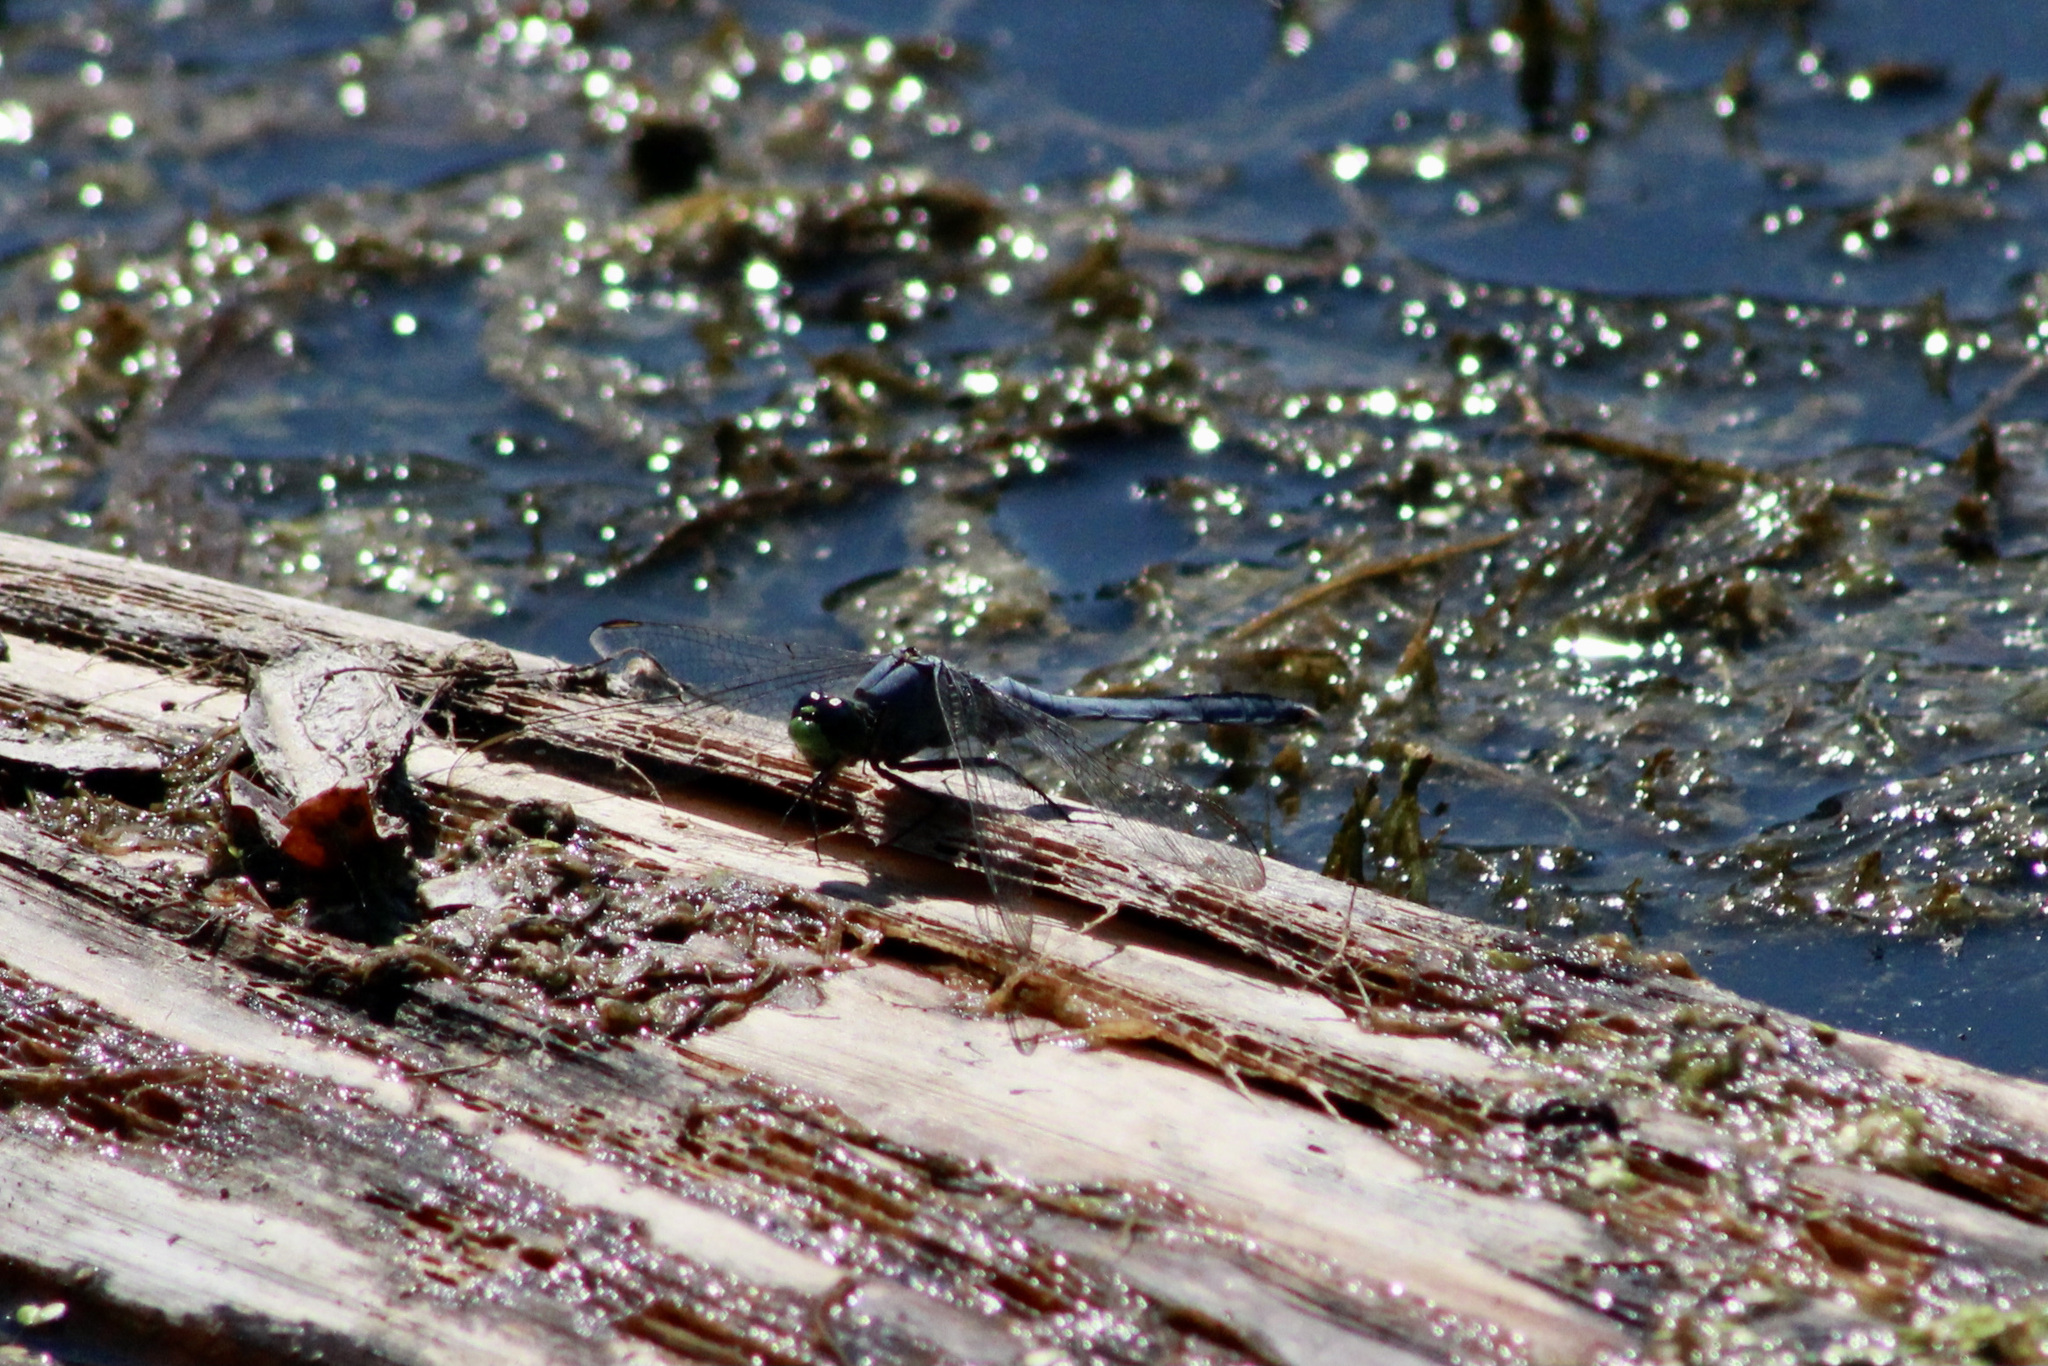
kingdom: Animalia
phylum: Arthropoda
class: Insecta
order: Odonata
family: Libellulidae
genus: Erythemis
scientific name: Erythemis simplicicollis
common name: Eastern pondhawk
